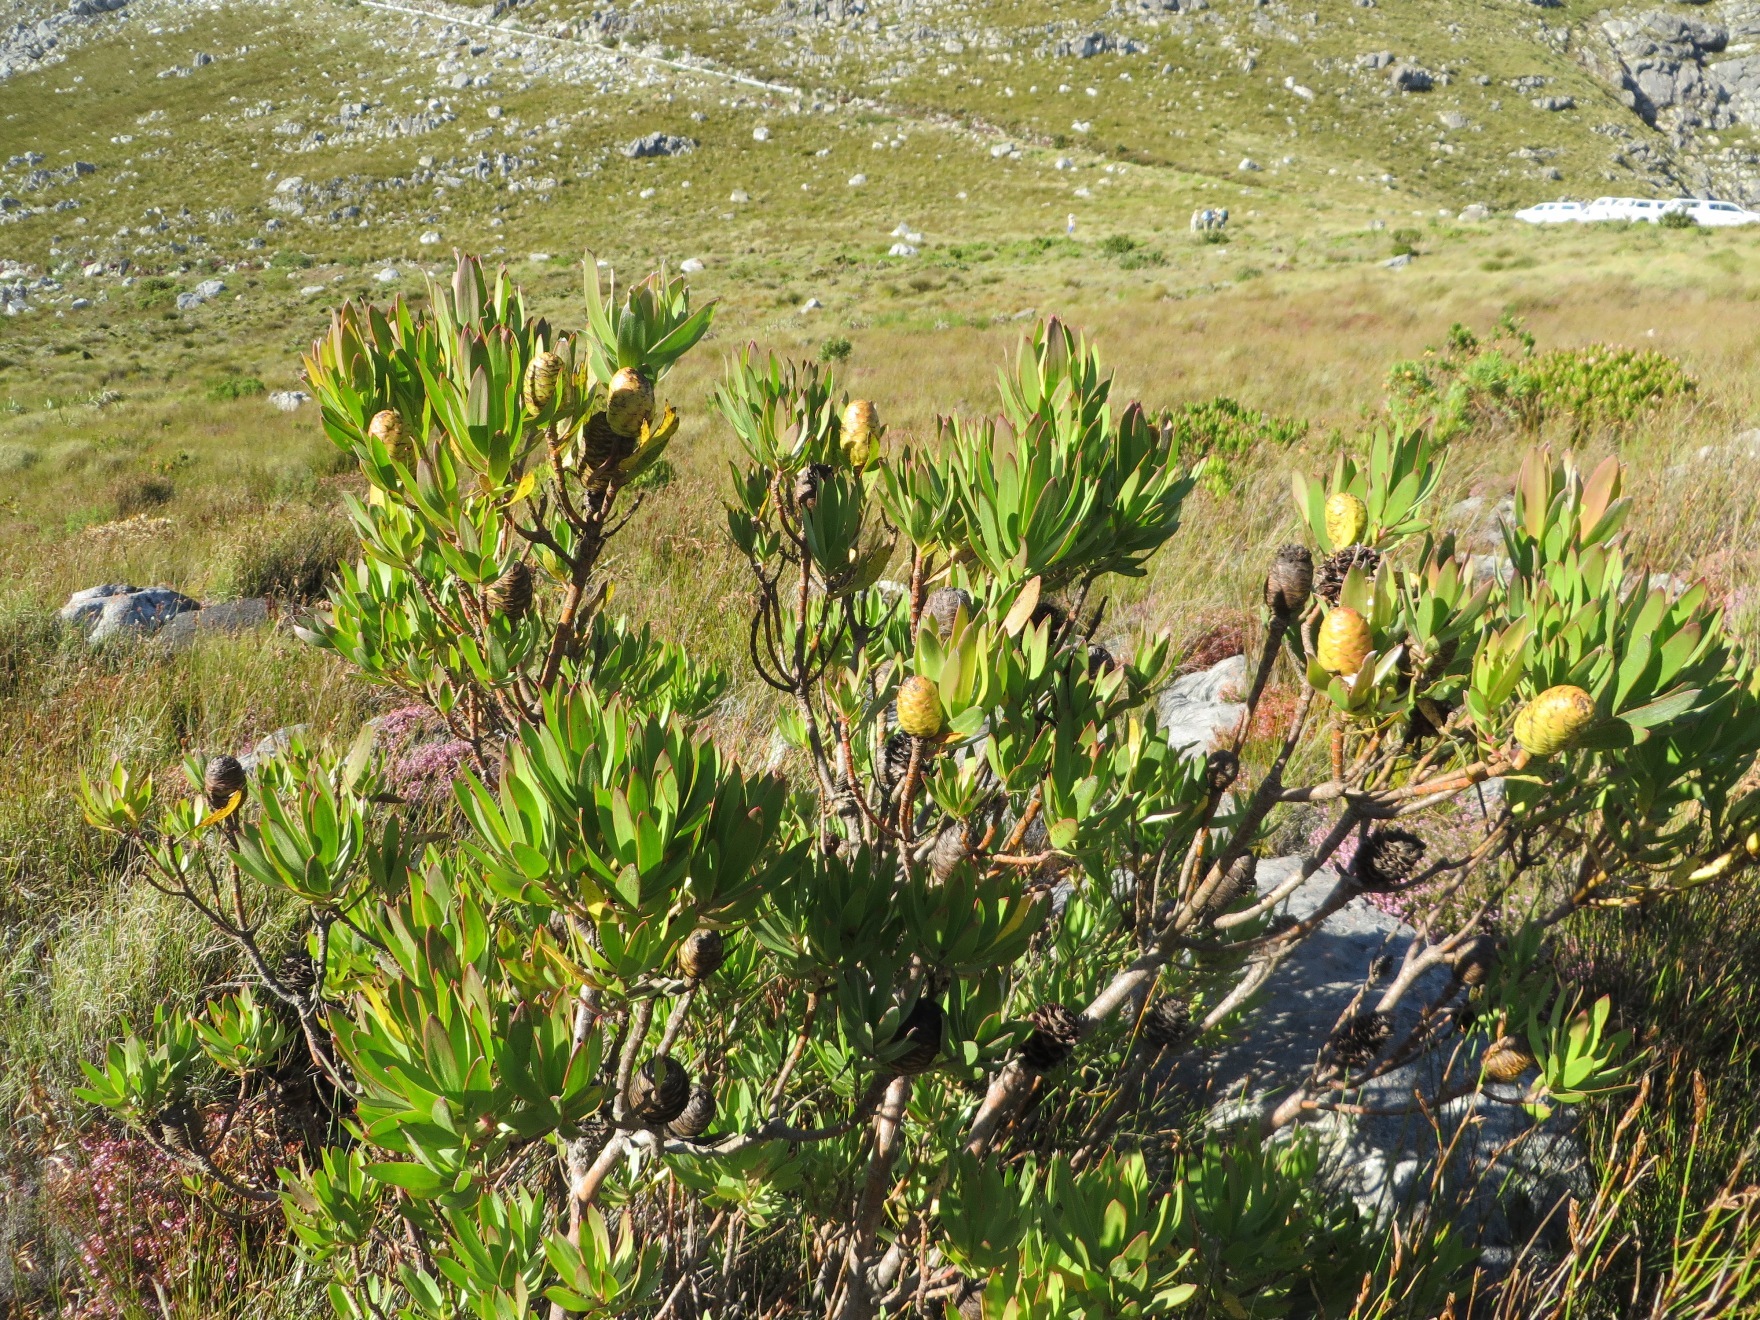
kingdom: Plantae
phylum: Tracheophyta
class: Magnoliopsida
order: Proteales
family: Proteaceae
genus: Leucadendron
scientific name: Leucadendron gandogeri
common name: Broad-leaf conebush
